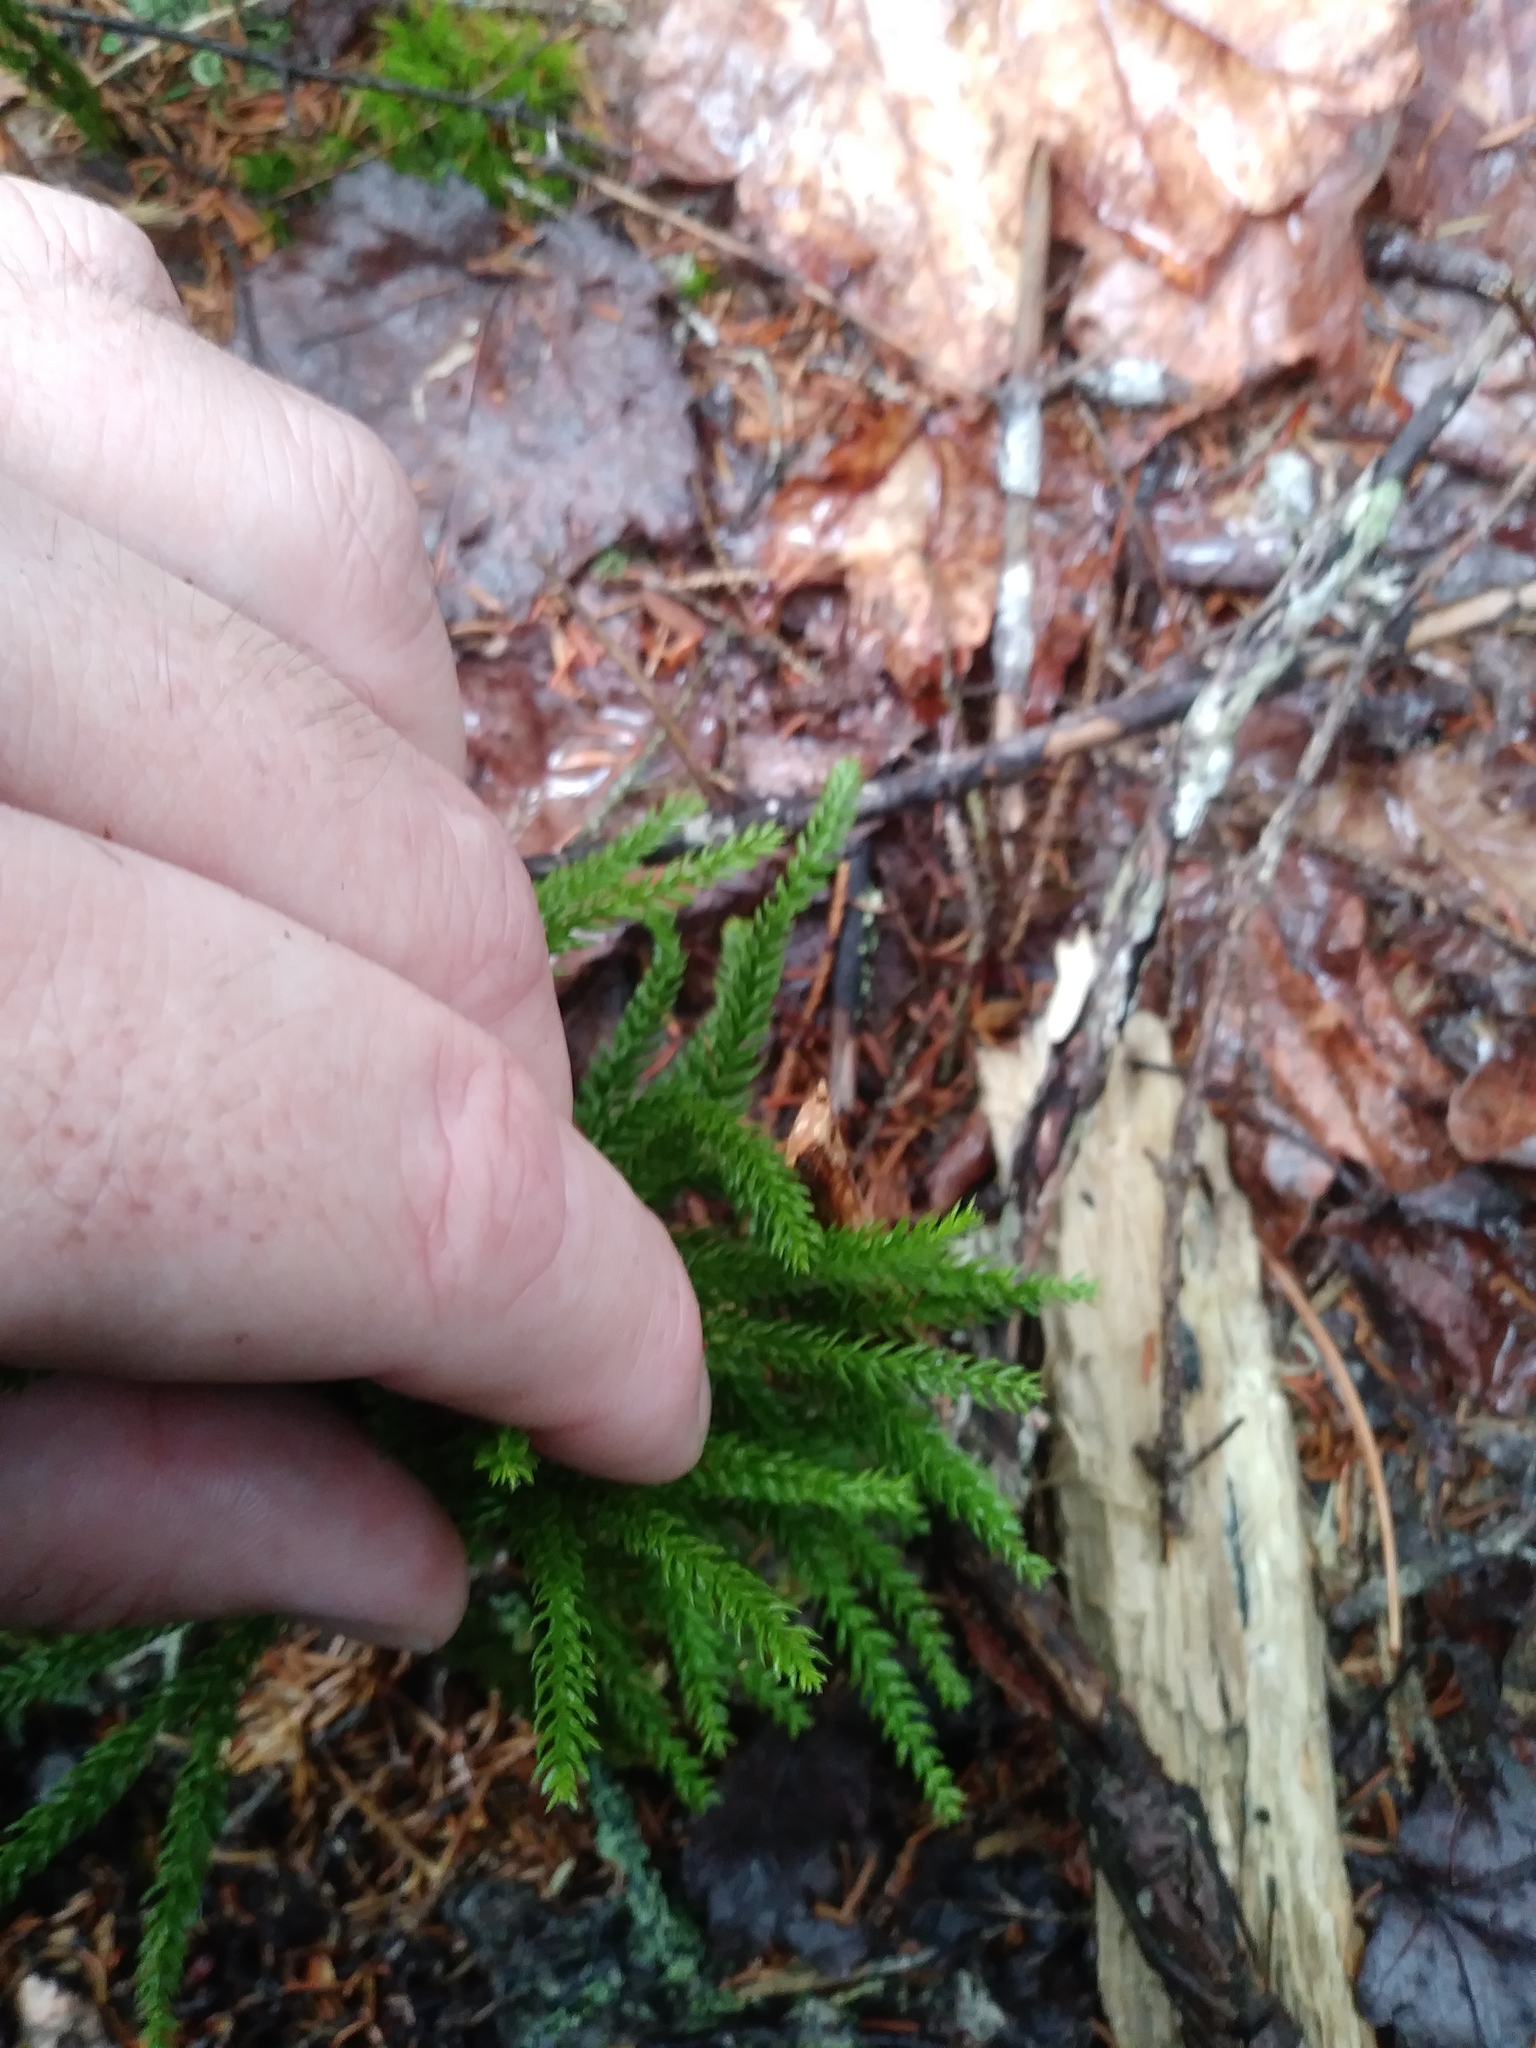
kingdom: Plantae
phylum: Tracheophyta
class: Lycopodiopsida
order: Lycopodiales
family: Lycopodiaceae
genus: Dendrolycopodium
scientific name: Dendrolycopodium obscurum
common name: Common ground-pine
